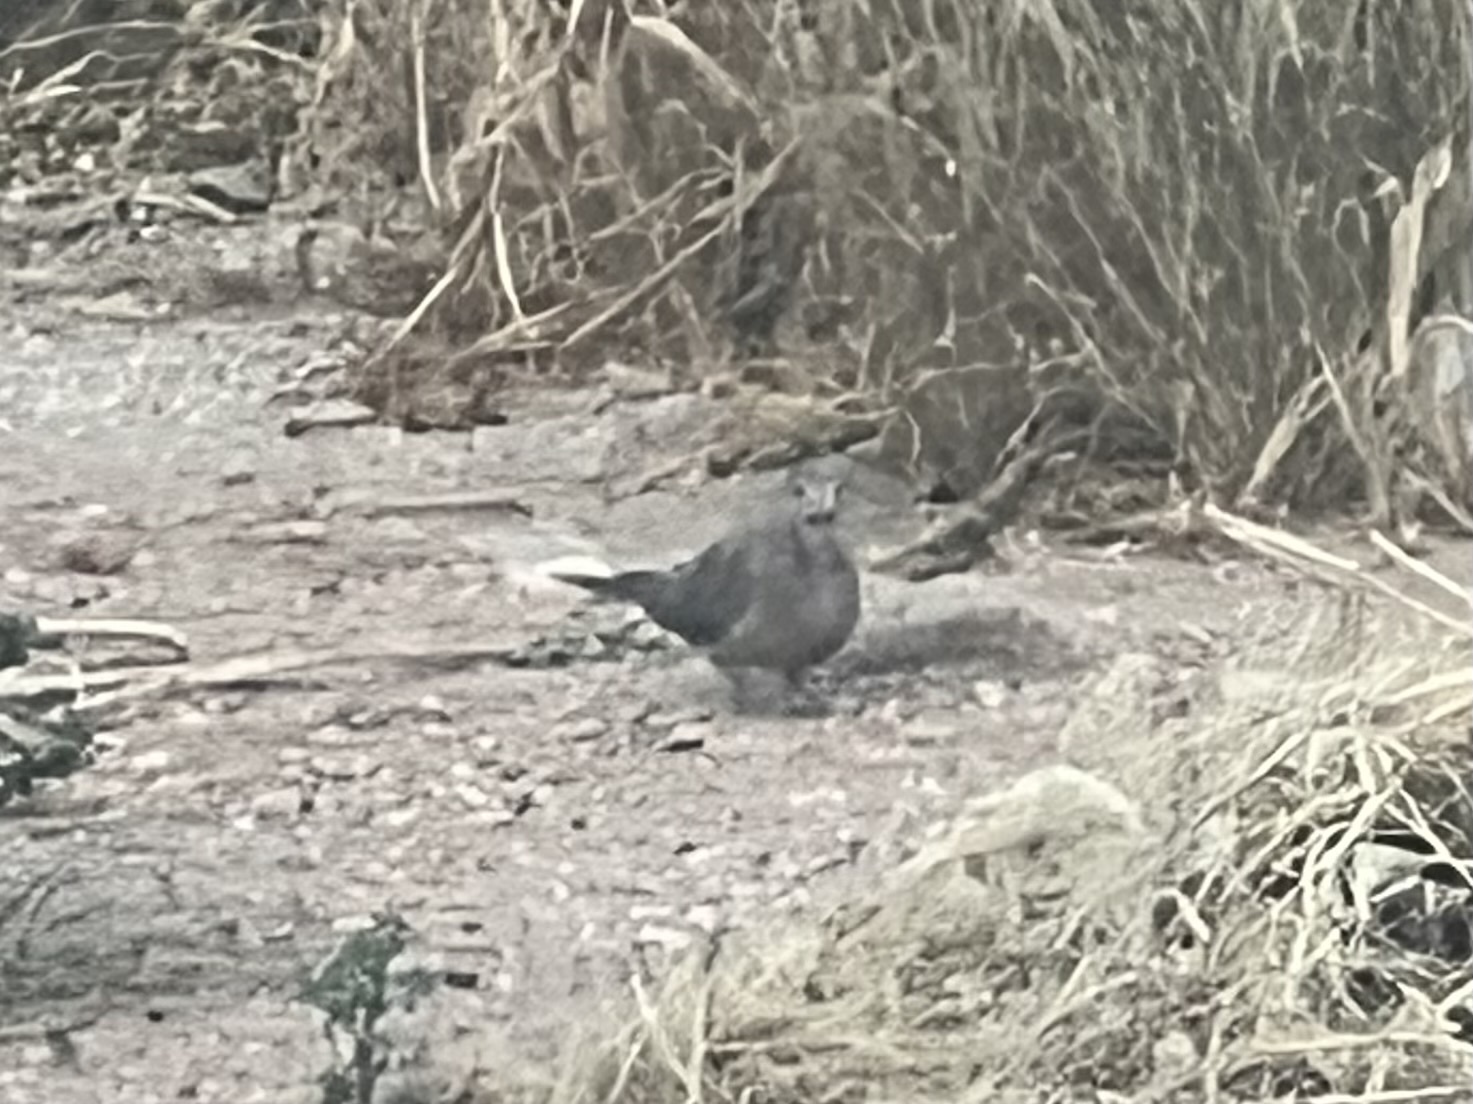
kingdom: Animalia
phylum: Chordata
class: Aves
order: Columbiformes
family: Columbidae
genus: Spilopelia
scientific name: Spilopelia senegalensis
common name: Laughing dove
